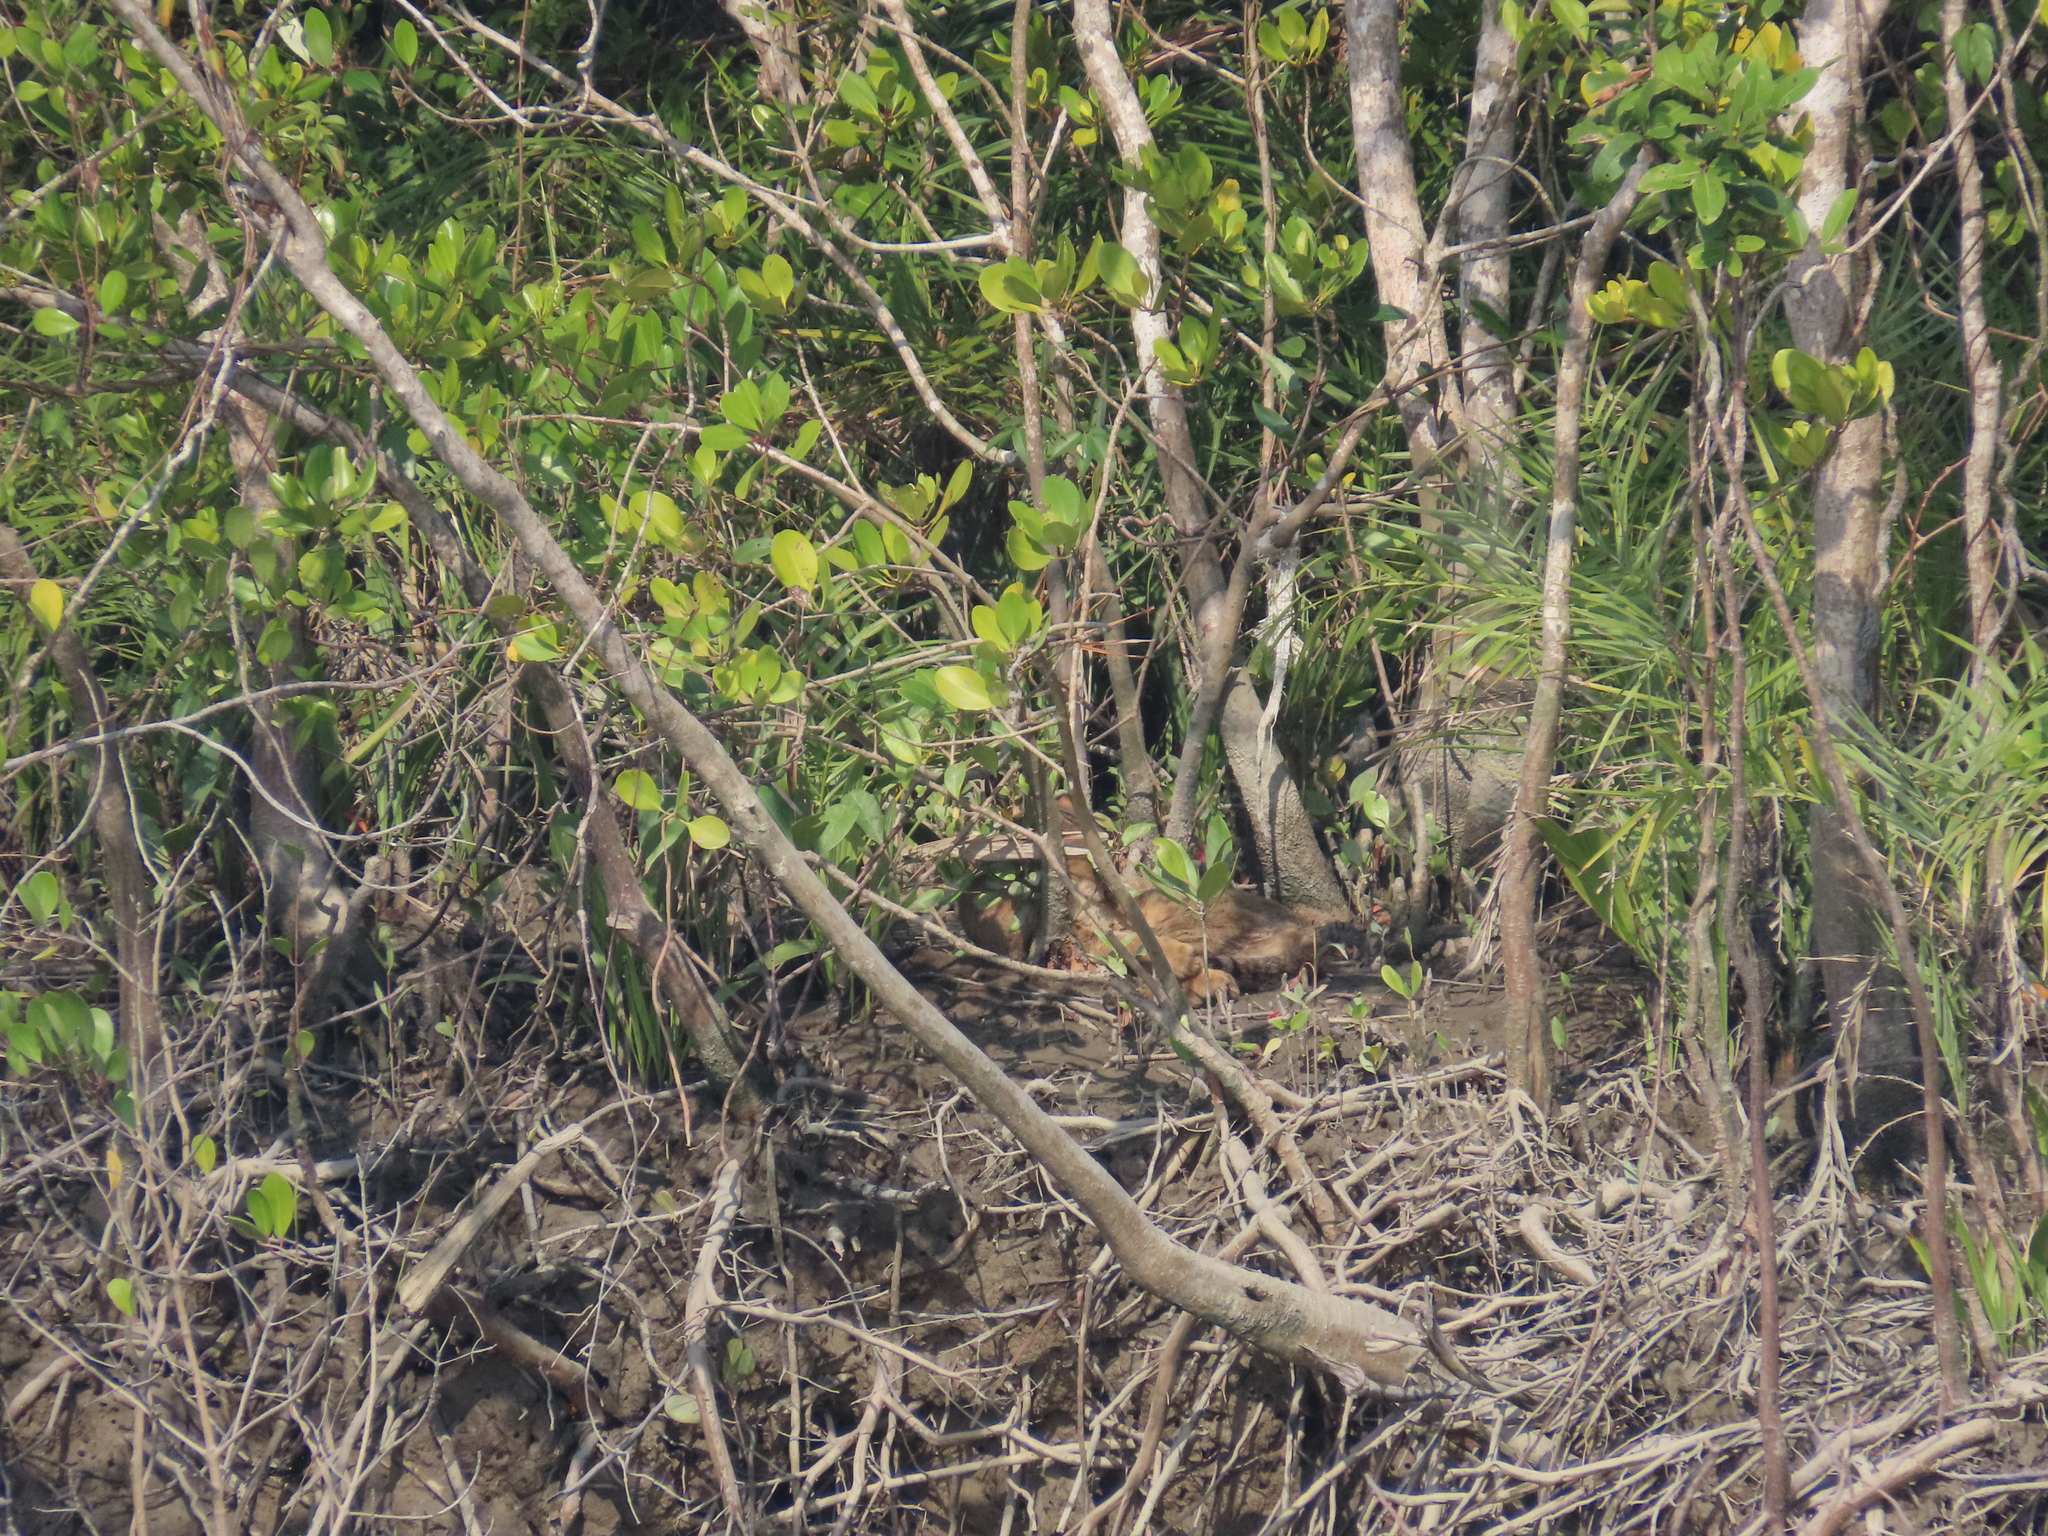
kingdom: Animalia
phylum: Chordata
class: Mammalia
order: Carnivora
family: Felidae
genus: Felis
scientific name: Felis chaus
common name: Jungle cat
